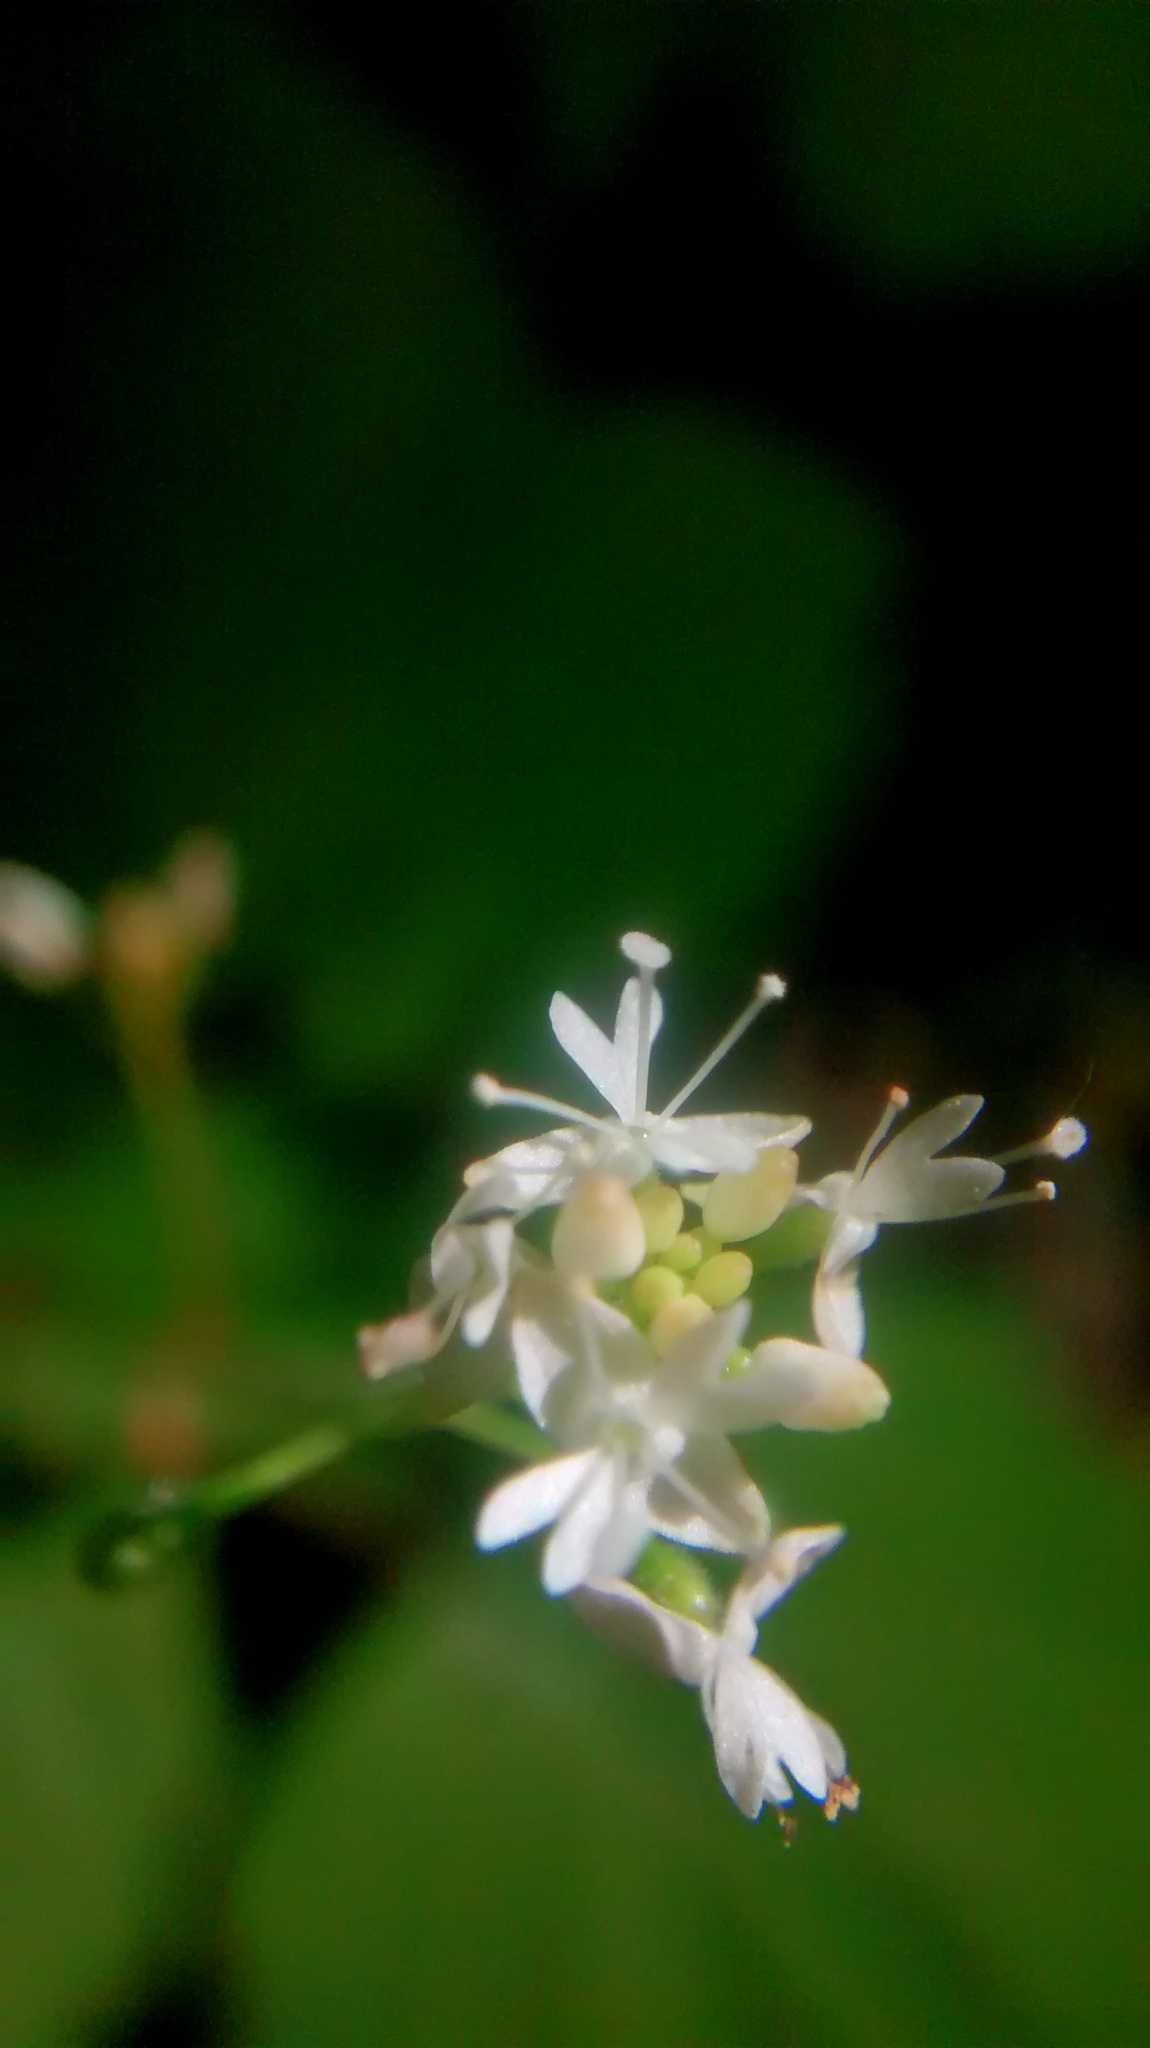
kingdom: Plantae
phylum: Tracheophyta
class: Magnoliopsida
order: Myrtales
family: Onagraceae
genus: Circaea
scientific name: Circaea alpina
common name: Alpine enchanter's-nightshade
